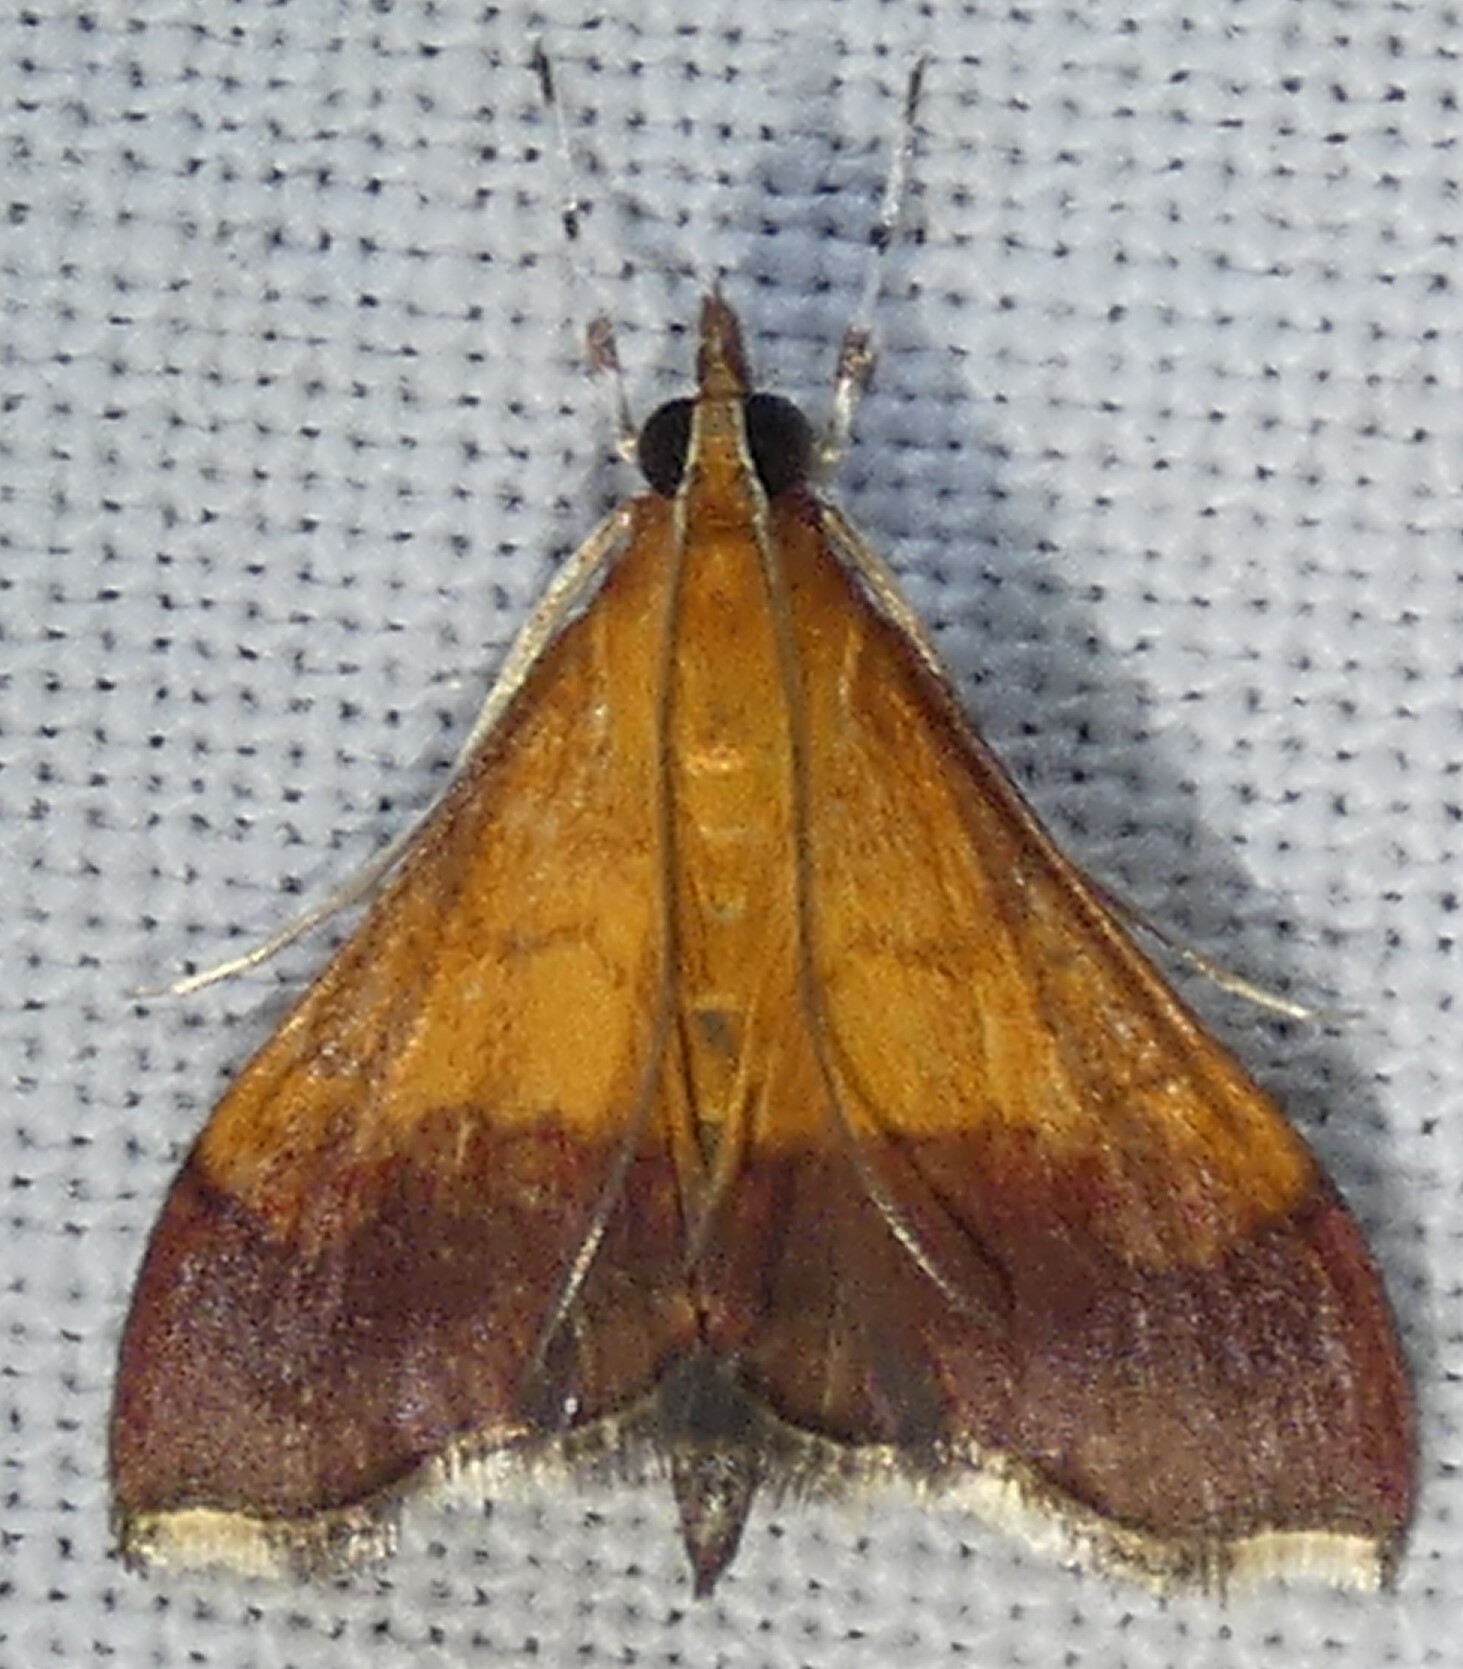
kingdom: Animalia
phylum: Arthropoda
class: Insecta
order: Lepidoptera
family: Crambidae
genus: Pyrausta
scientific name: Pyrausta bicoloralis
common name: Bicolored pyrausta moth
